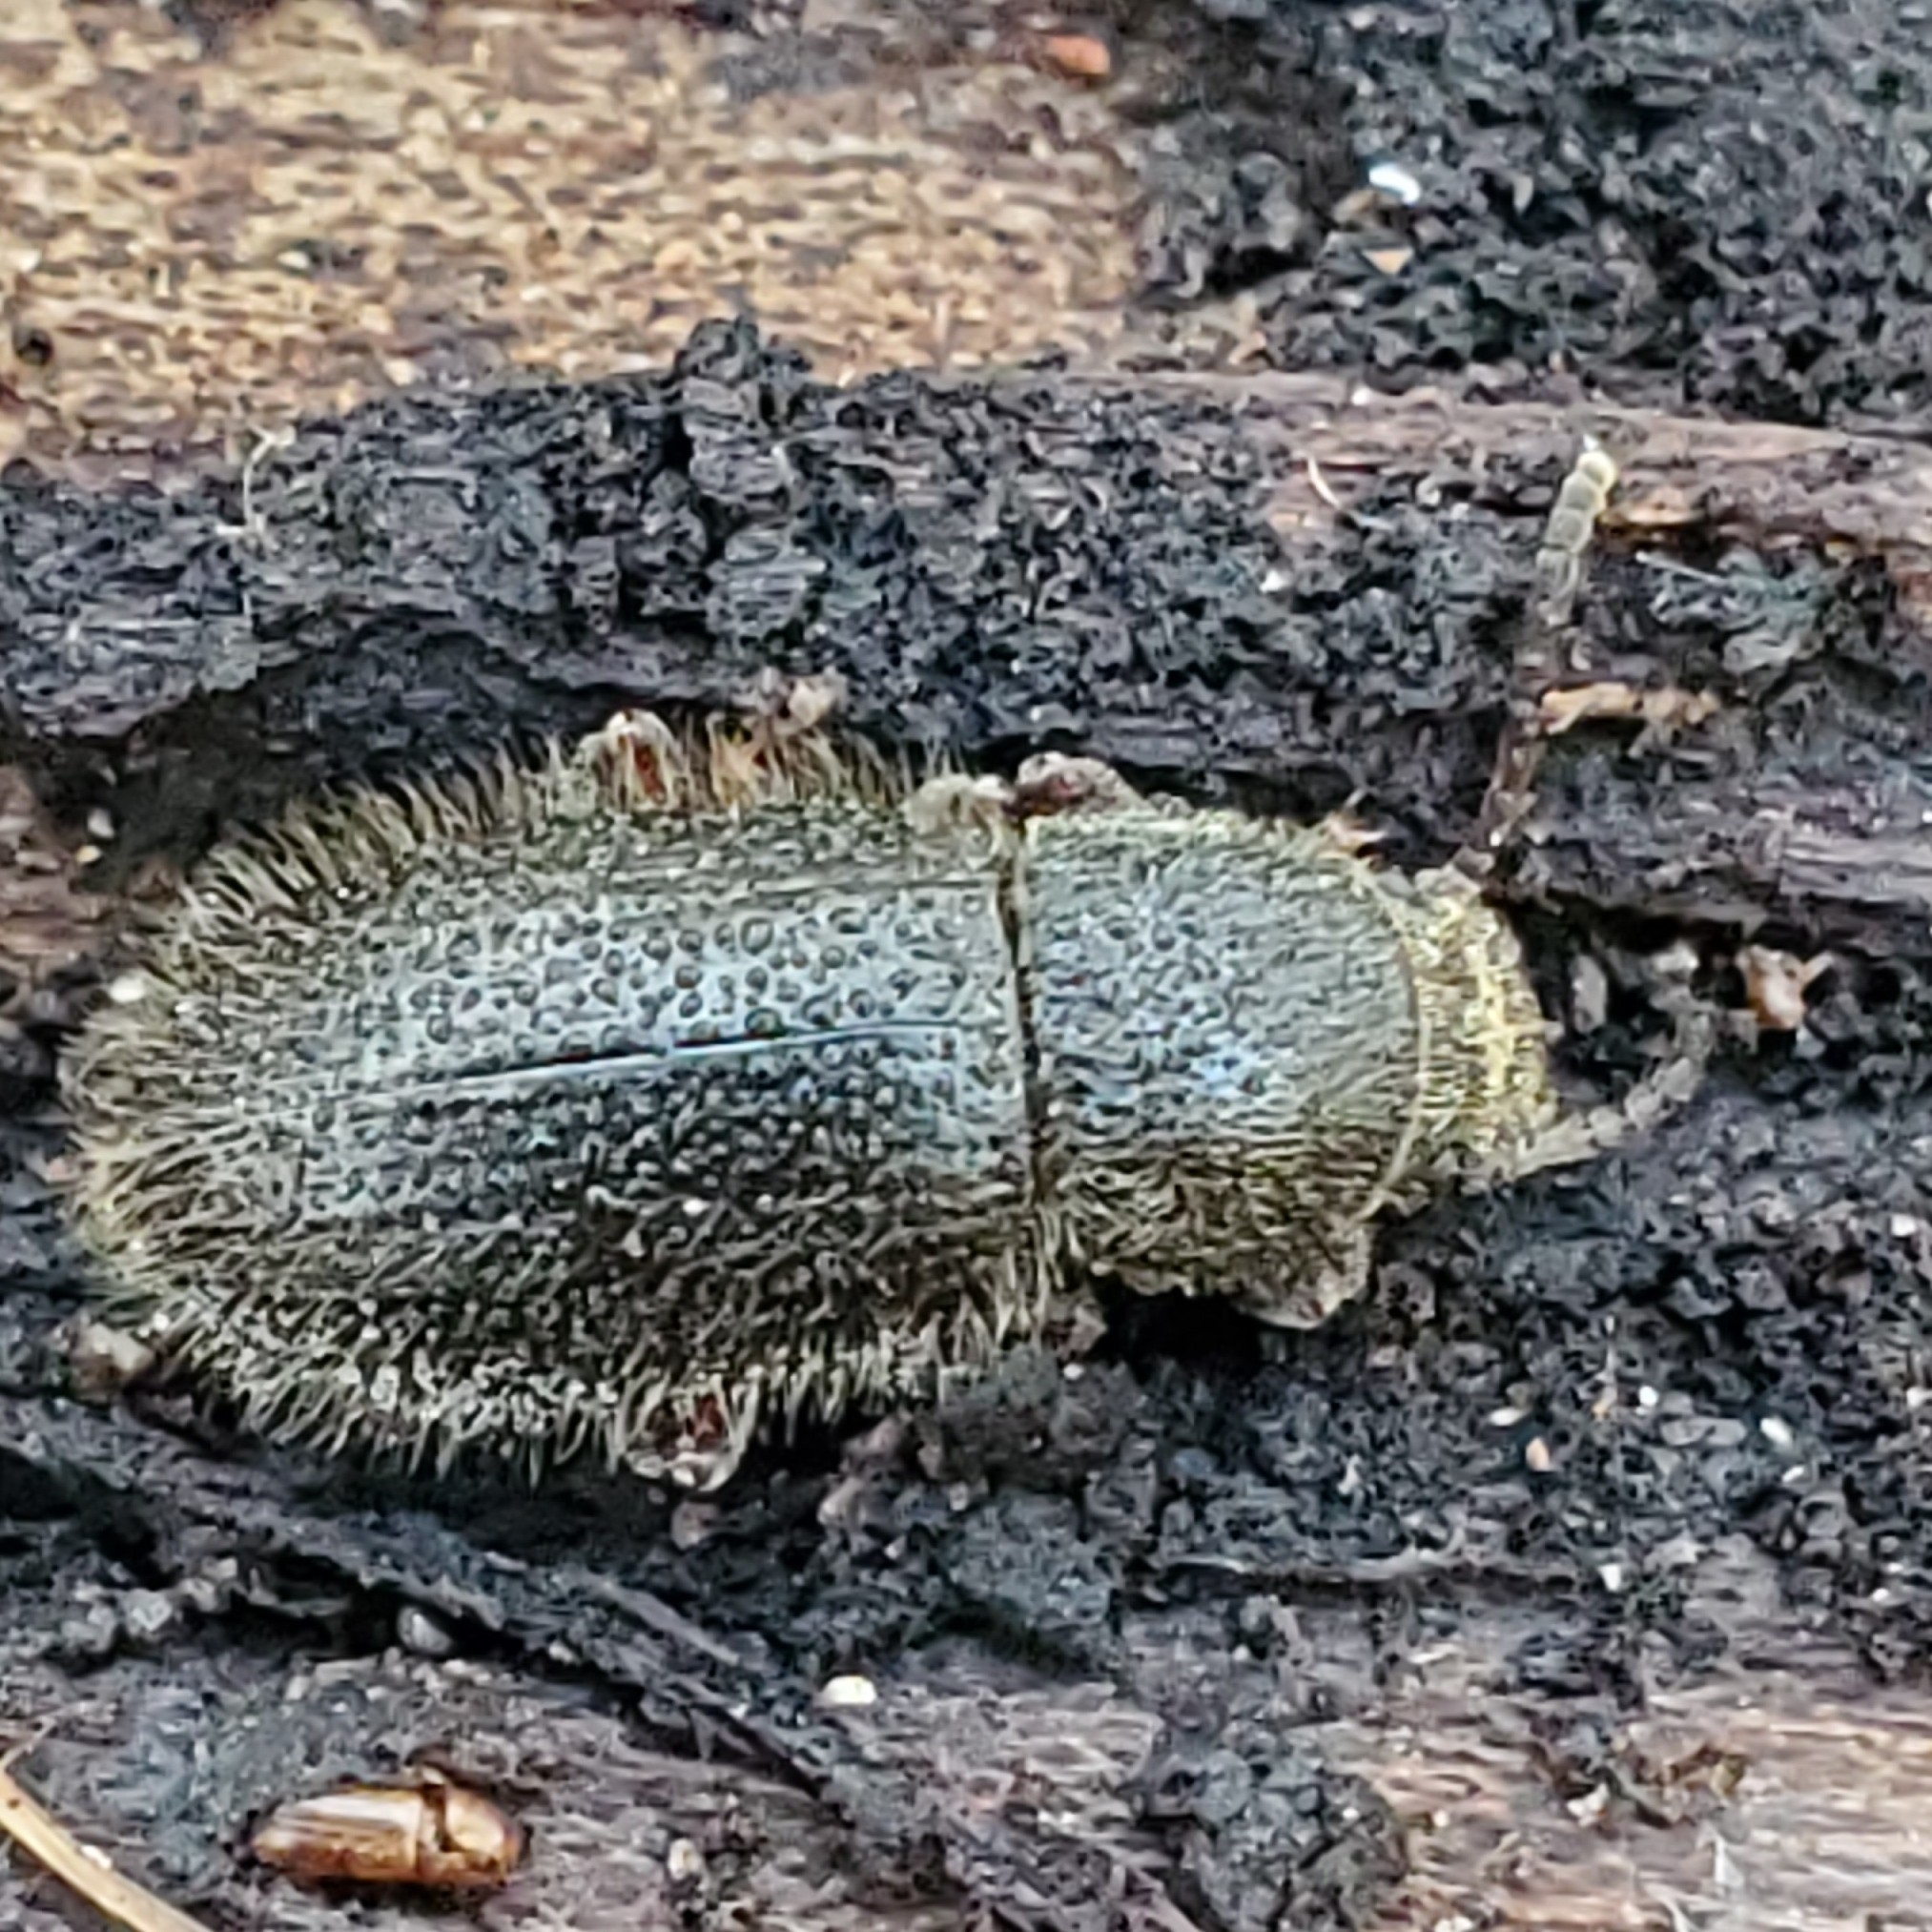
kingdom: Animalia
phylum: Arthropoda
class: Insecta
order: Coleoptera
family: Tenebrionidae
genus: Eleodes
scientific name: Eleodes littoralis
